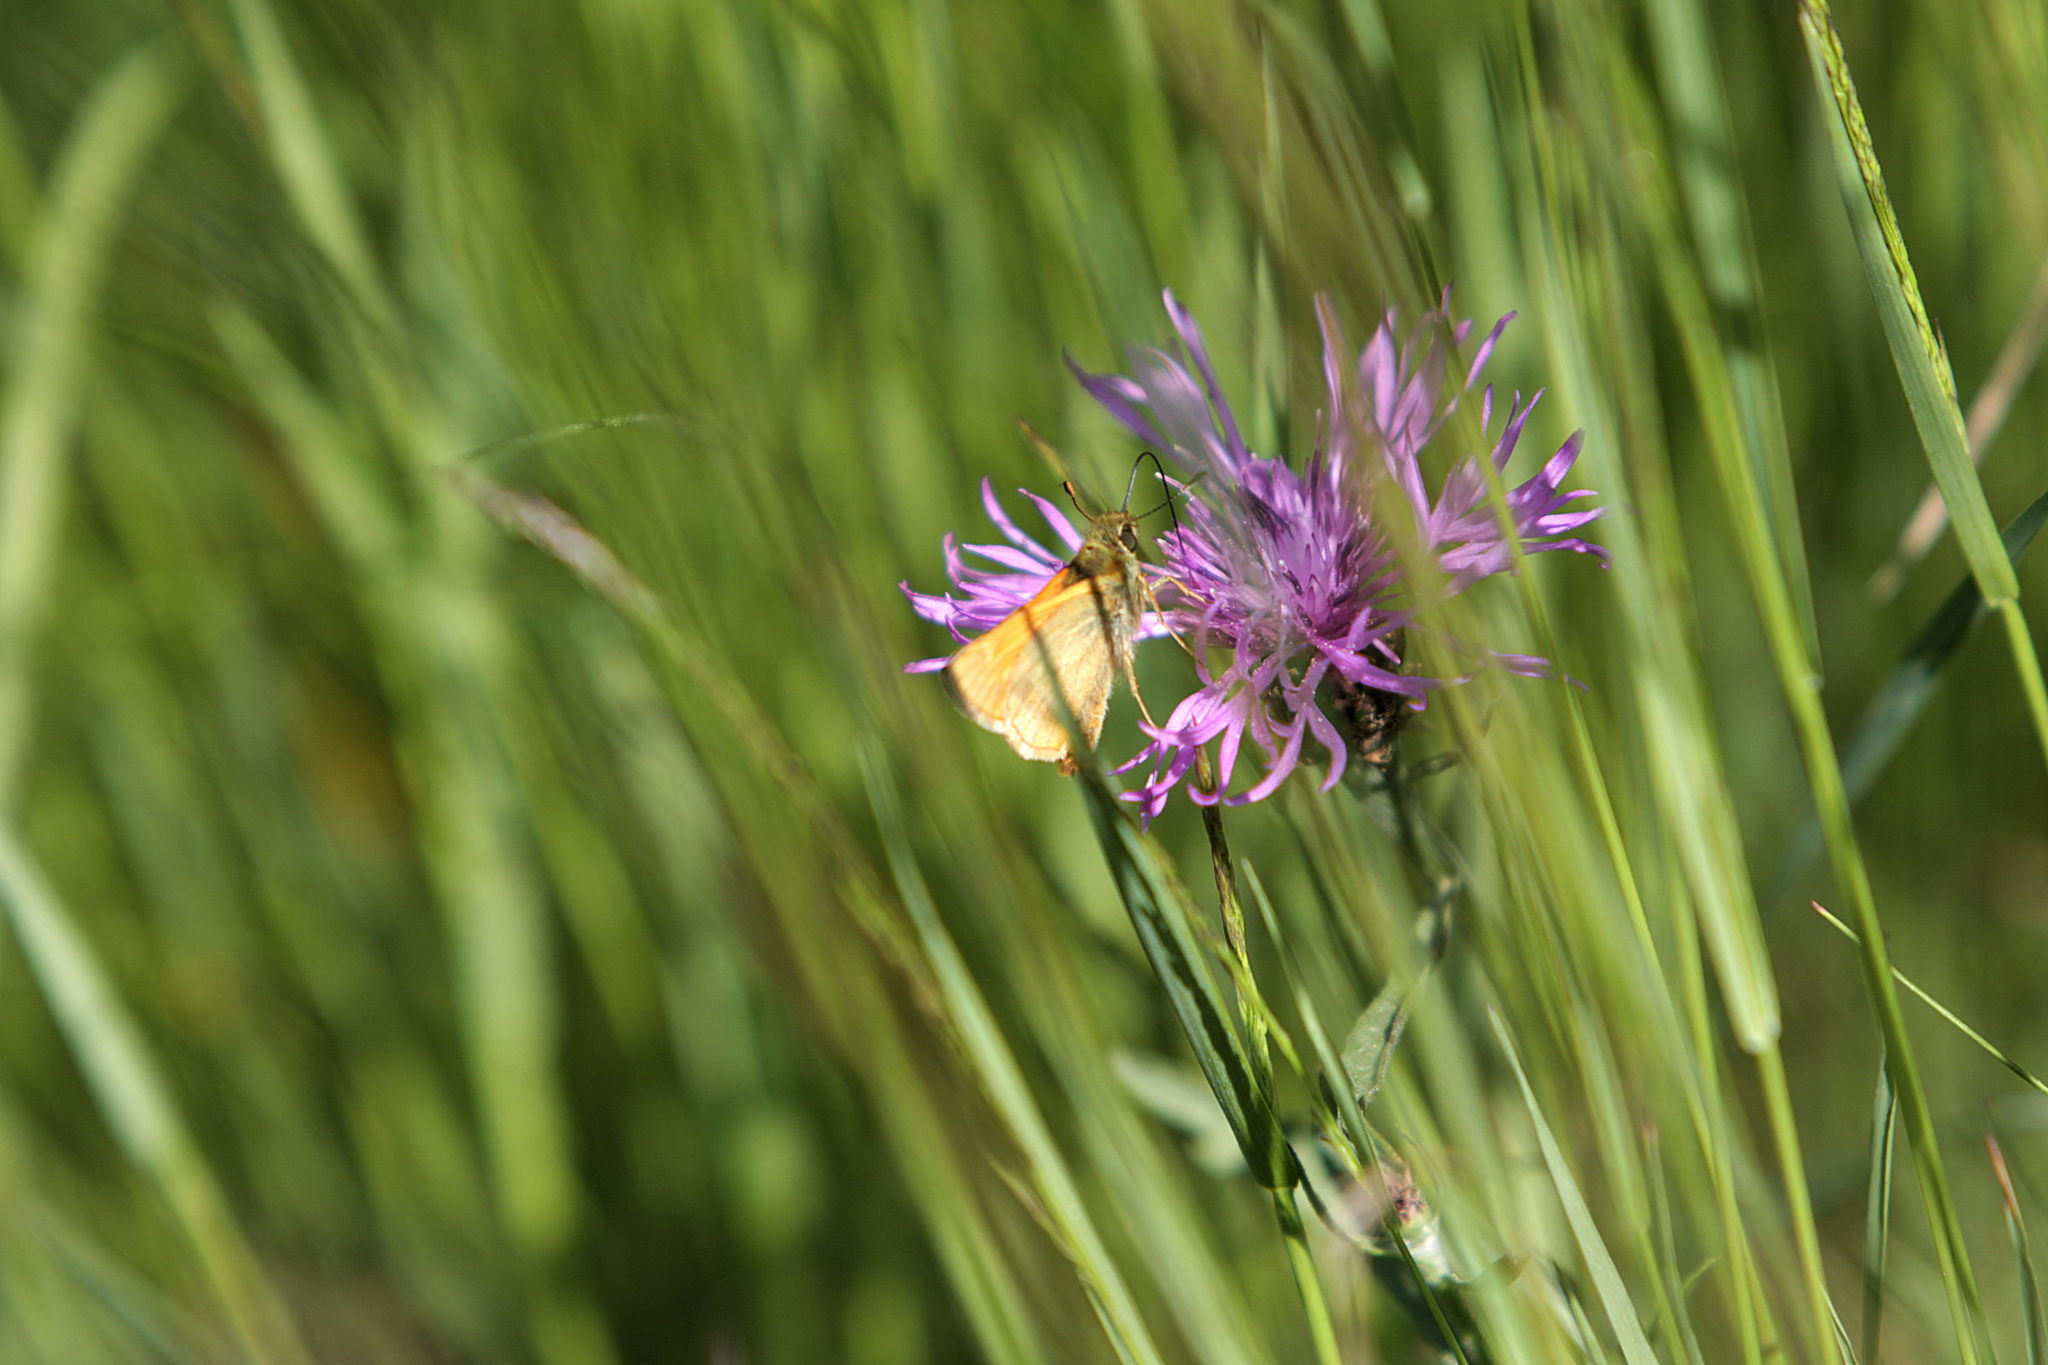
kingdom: Animalia
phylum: Arthropoda
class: Insecta
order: Lepidoptera
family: Hesperiidae
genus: Ochlodes
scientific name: Ochlodes venata
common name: Large skipper
